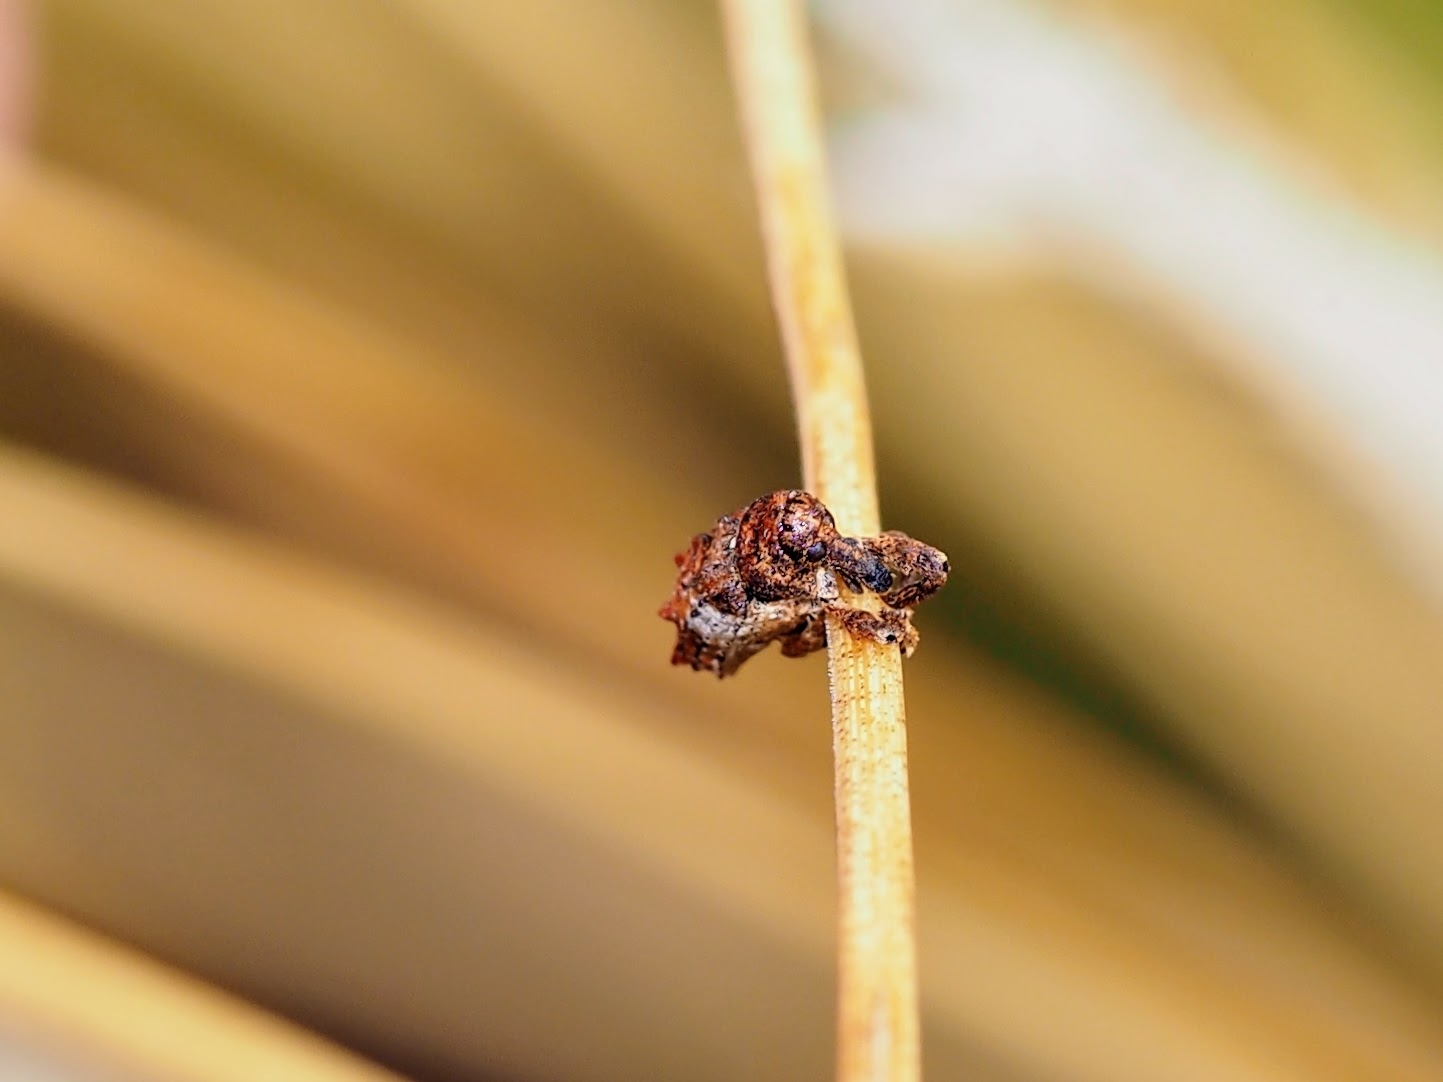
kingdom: Animalia
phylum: Arthropoda
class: Insecta
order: Coleoptera
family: Curculionidae
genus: Orthorhinus
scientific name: Orthorhinus klugii
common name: Vine weevil
